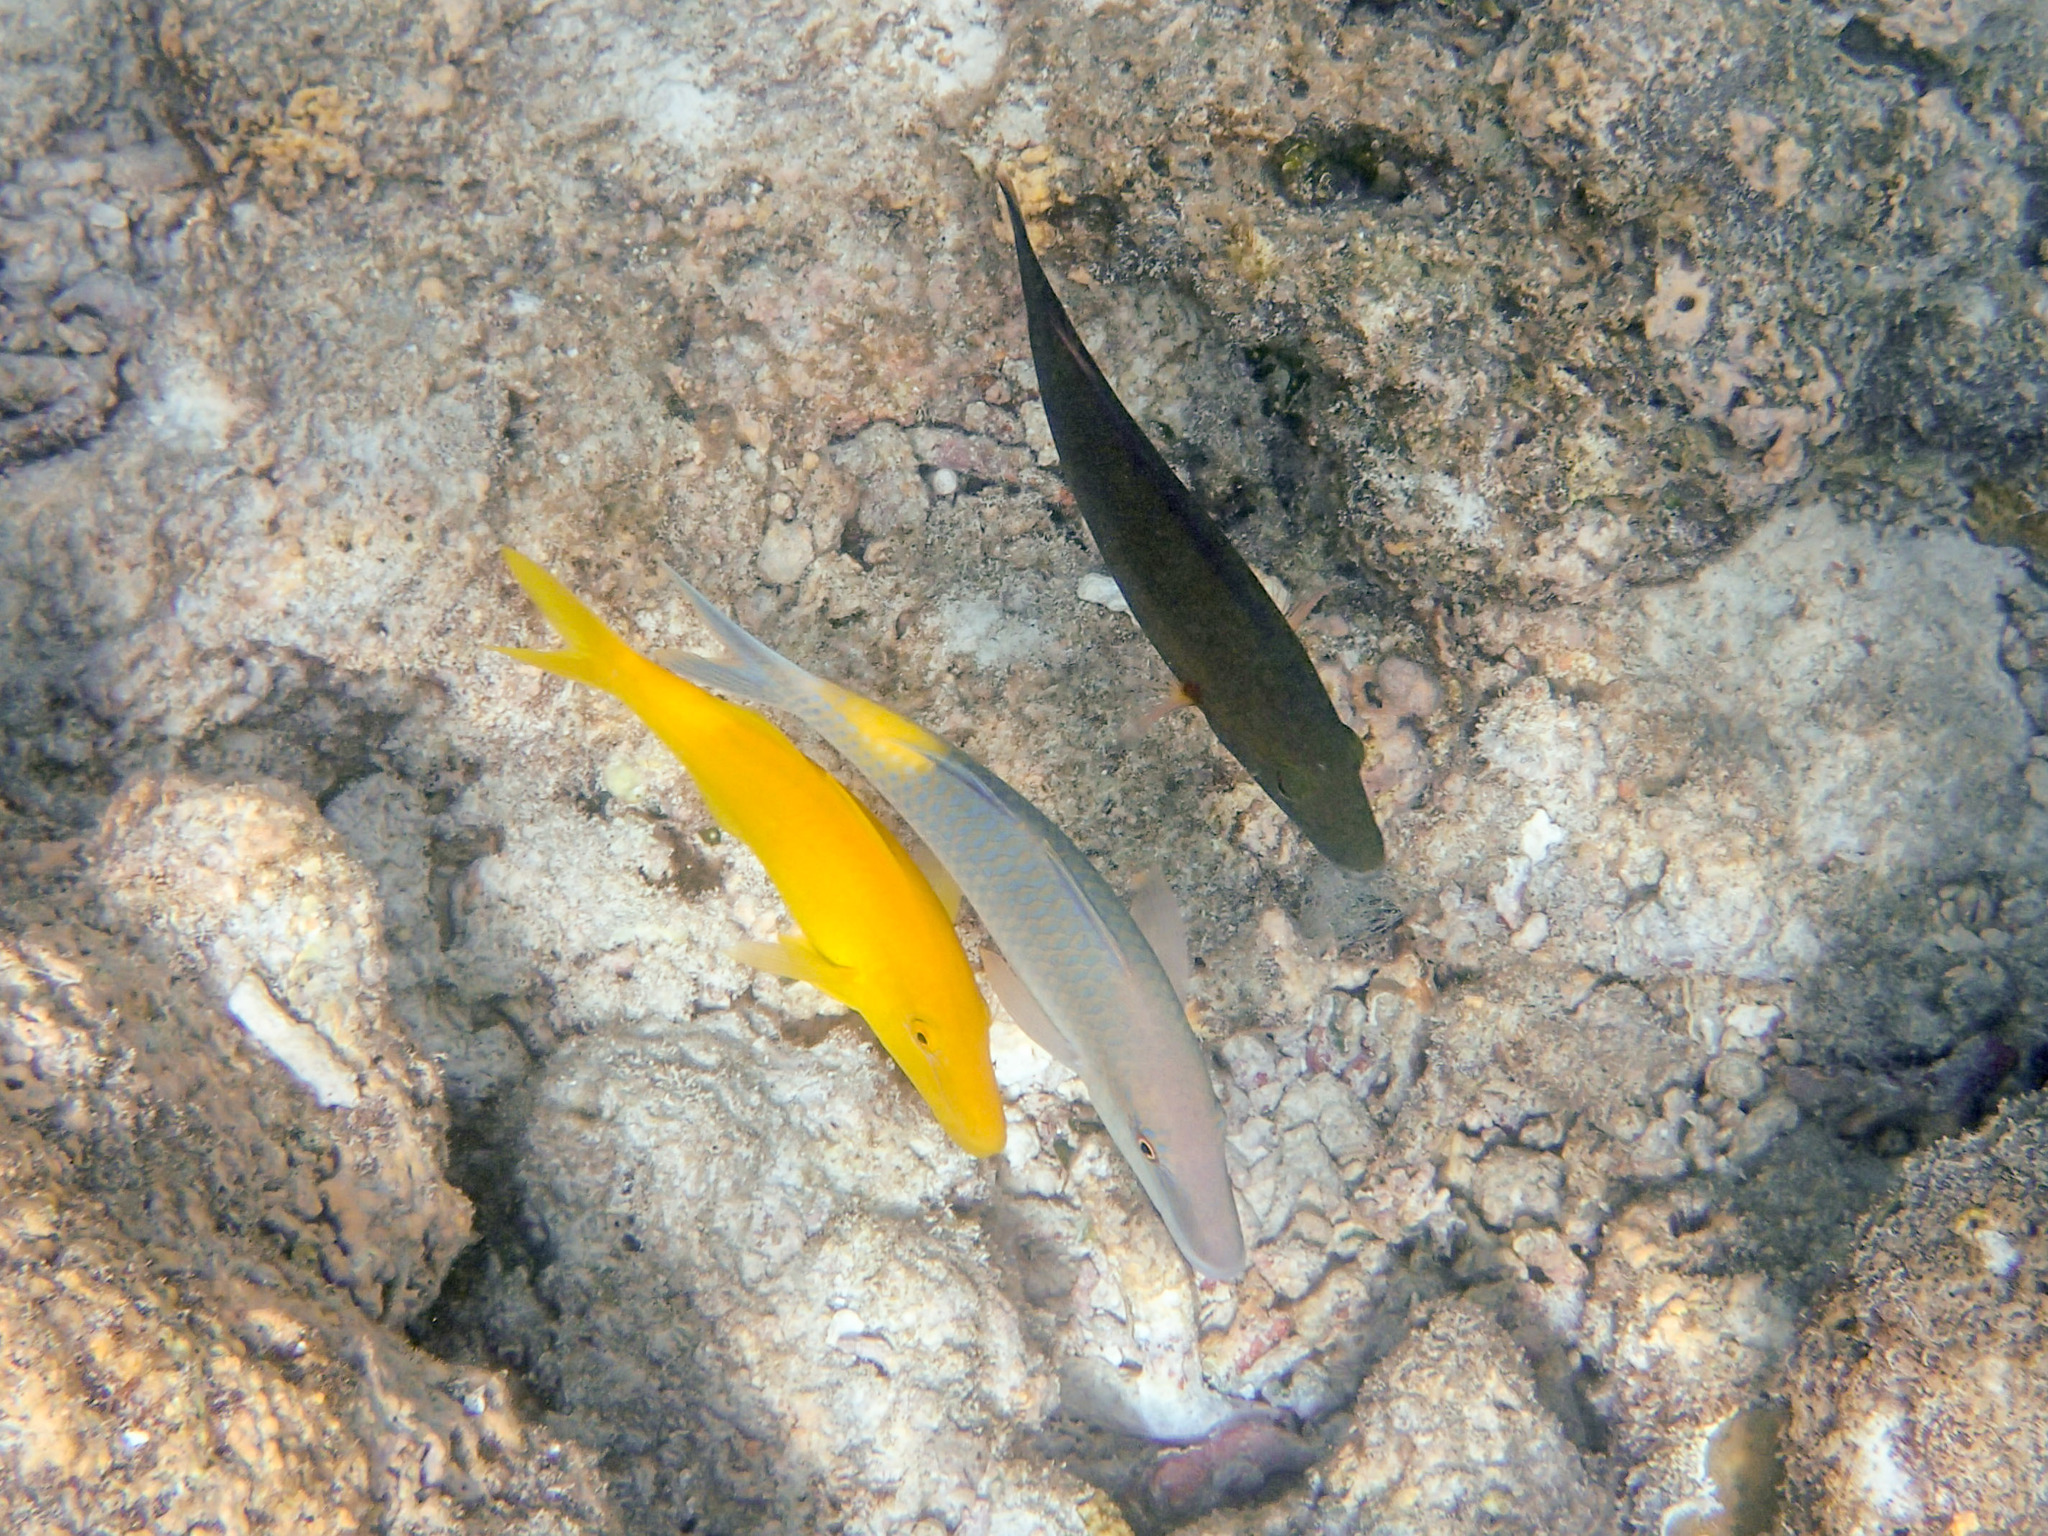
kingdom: Animalia
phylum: Chordata
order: Perciformes
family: Mullidae
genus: Parupeneus
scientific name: Parupeneus cyclostomus
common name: Goldsaddle goatfish
